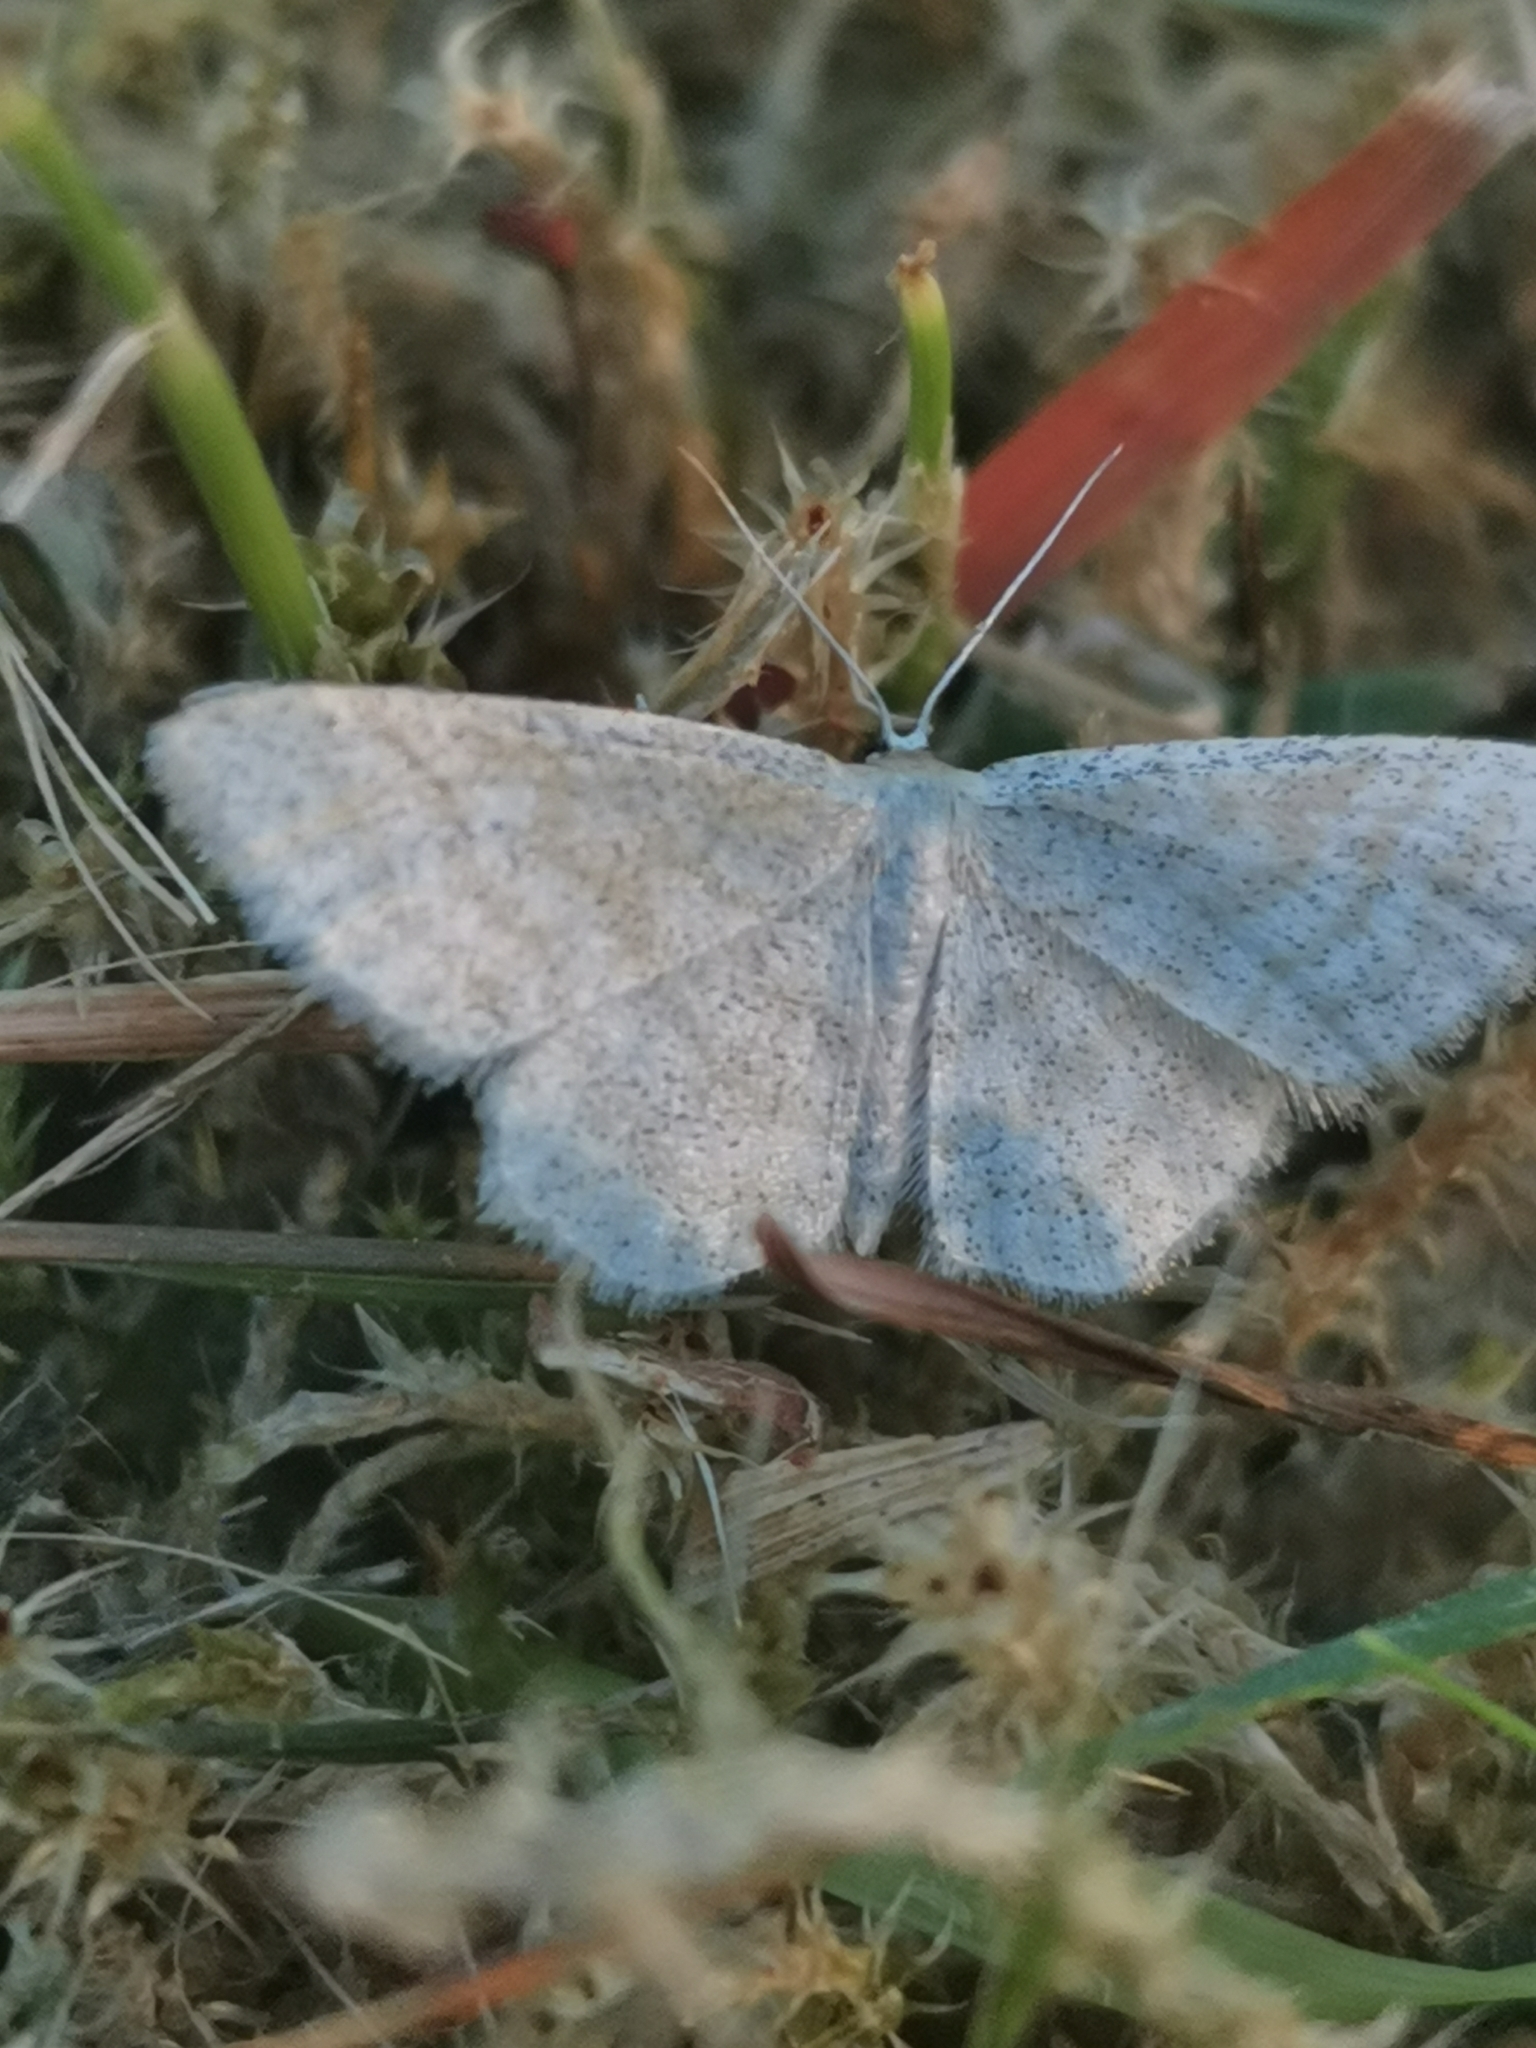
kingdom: Animalia
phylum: Arthropoda
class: Insecta
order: Lepidoptera
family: Geometridae
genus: Idaea
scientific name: Idaea pallidata
